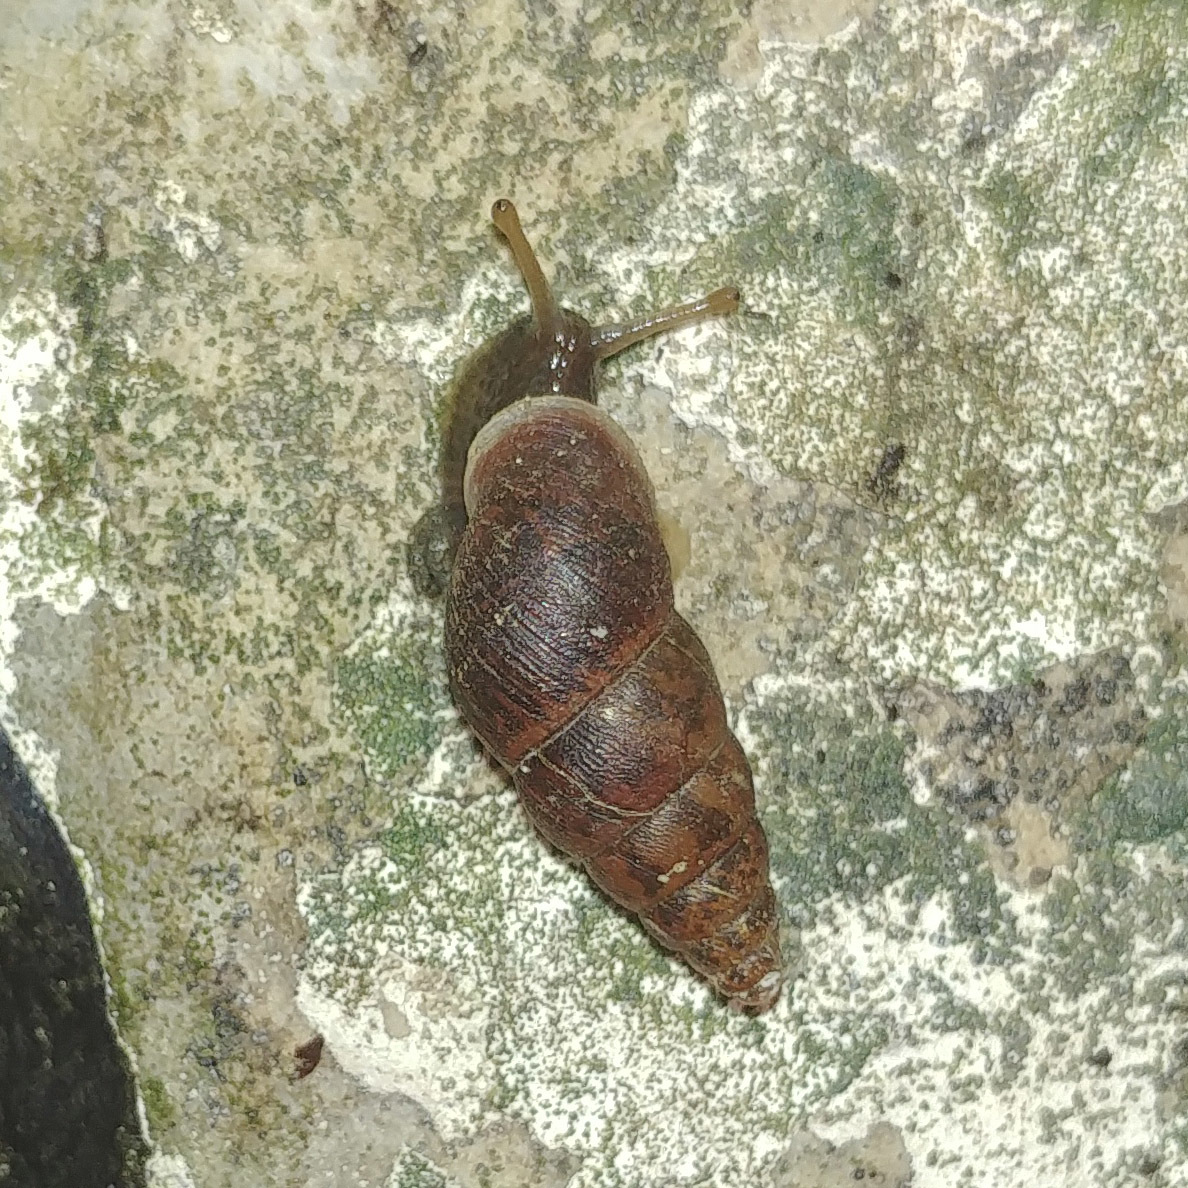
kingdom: Animalia
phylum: Mollusca
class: Gastropoda
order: Stylommatophora
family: Enidae
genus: Ena
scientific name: Ena montana
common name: Mountain bulin
